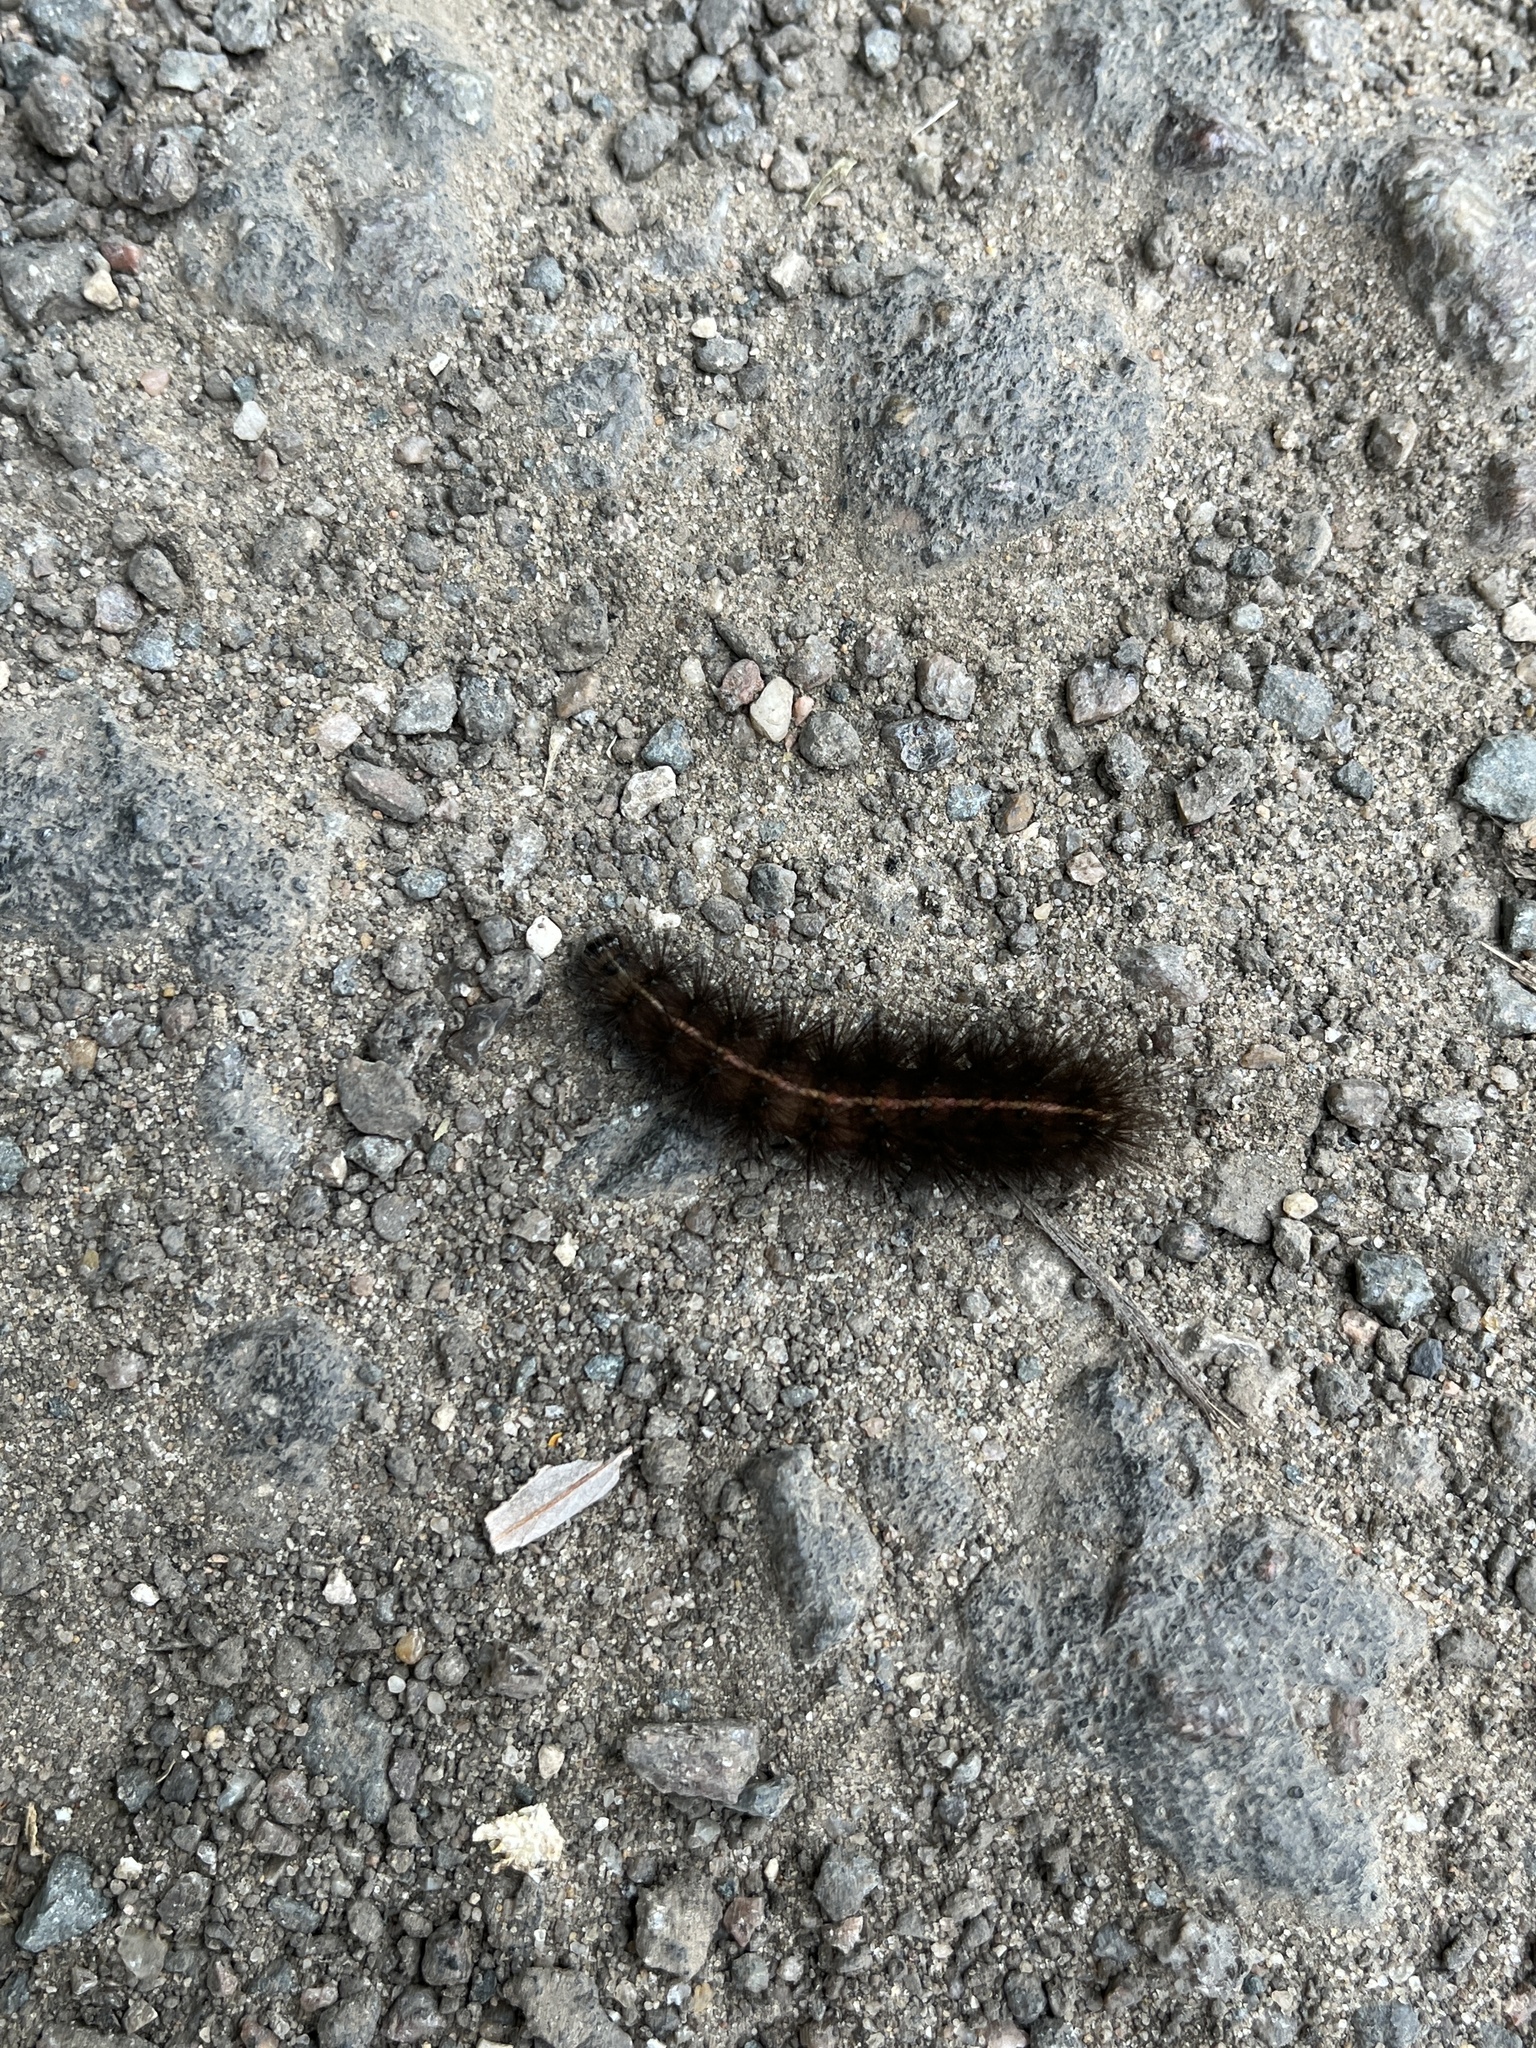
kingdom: Animalia
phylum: Arthropoda
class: Insecta
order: Lepidoptera
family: Erebidae
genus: Spilosoma
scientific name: Spilosoma lubricipeda
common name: White ermine
